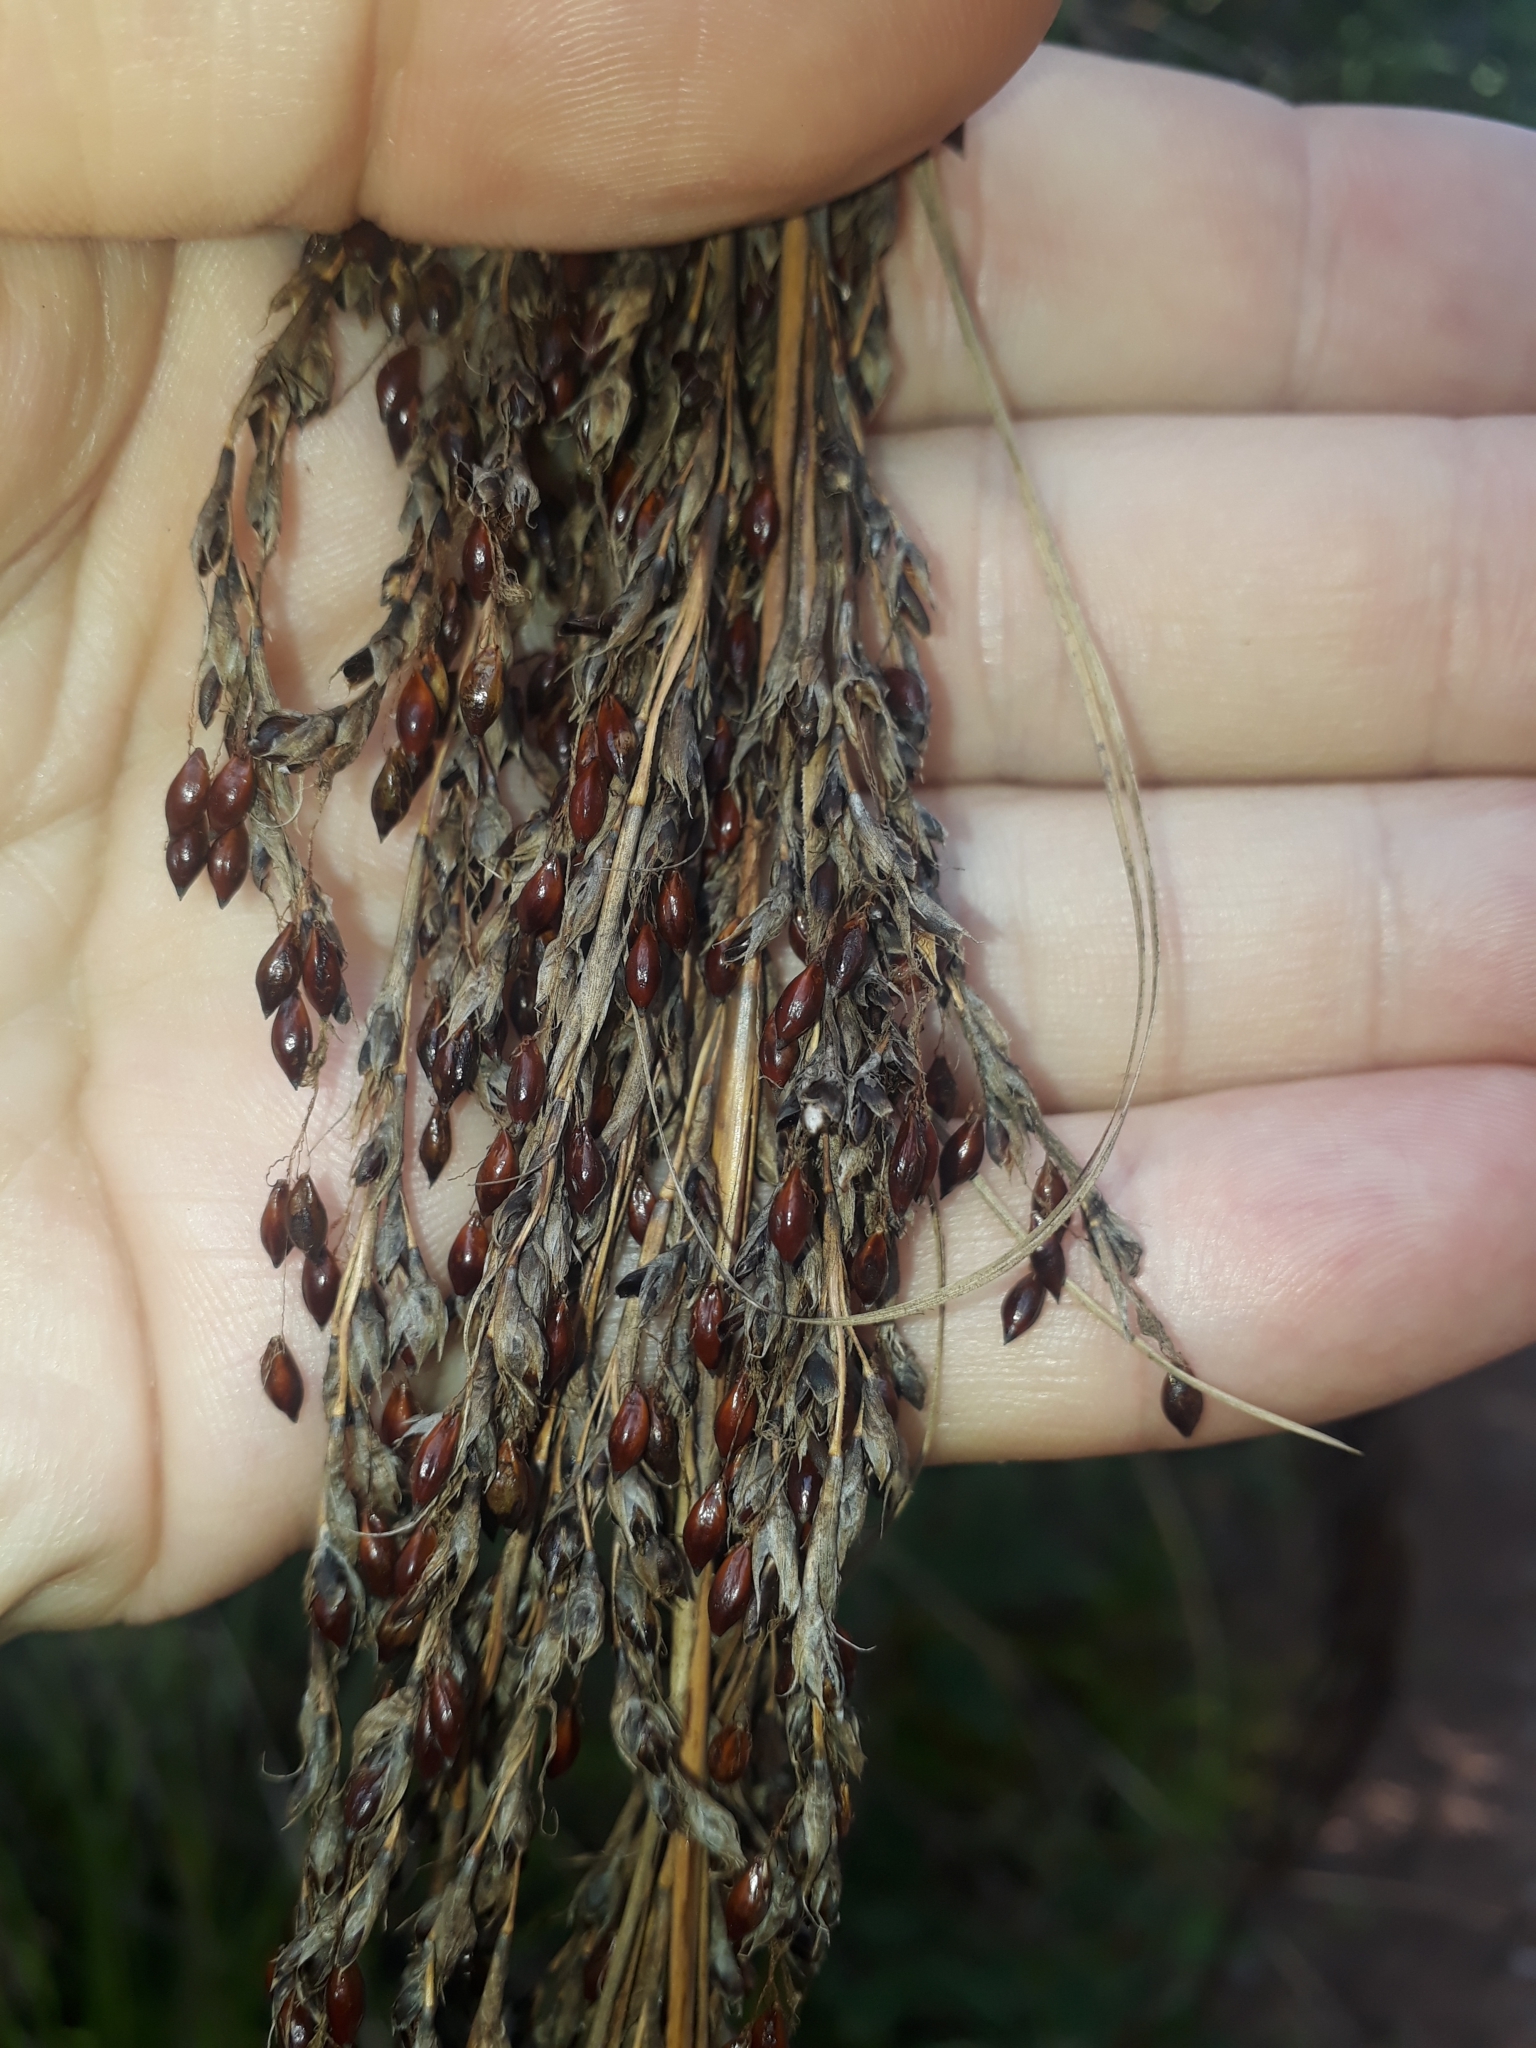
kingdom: Plantae
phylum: Tracheophyta
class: Liliopsida
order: Poales
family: Cyperaceae
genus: Gahnia
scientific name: Gahnia setifolia
